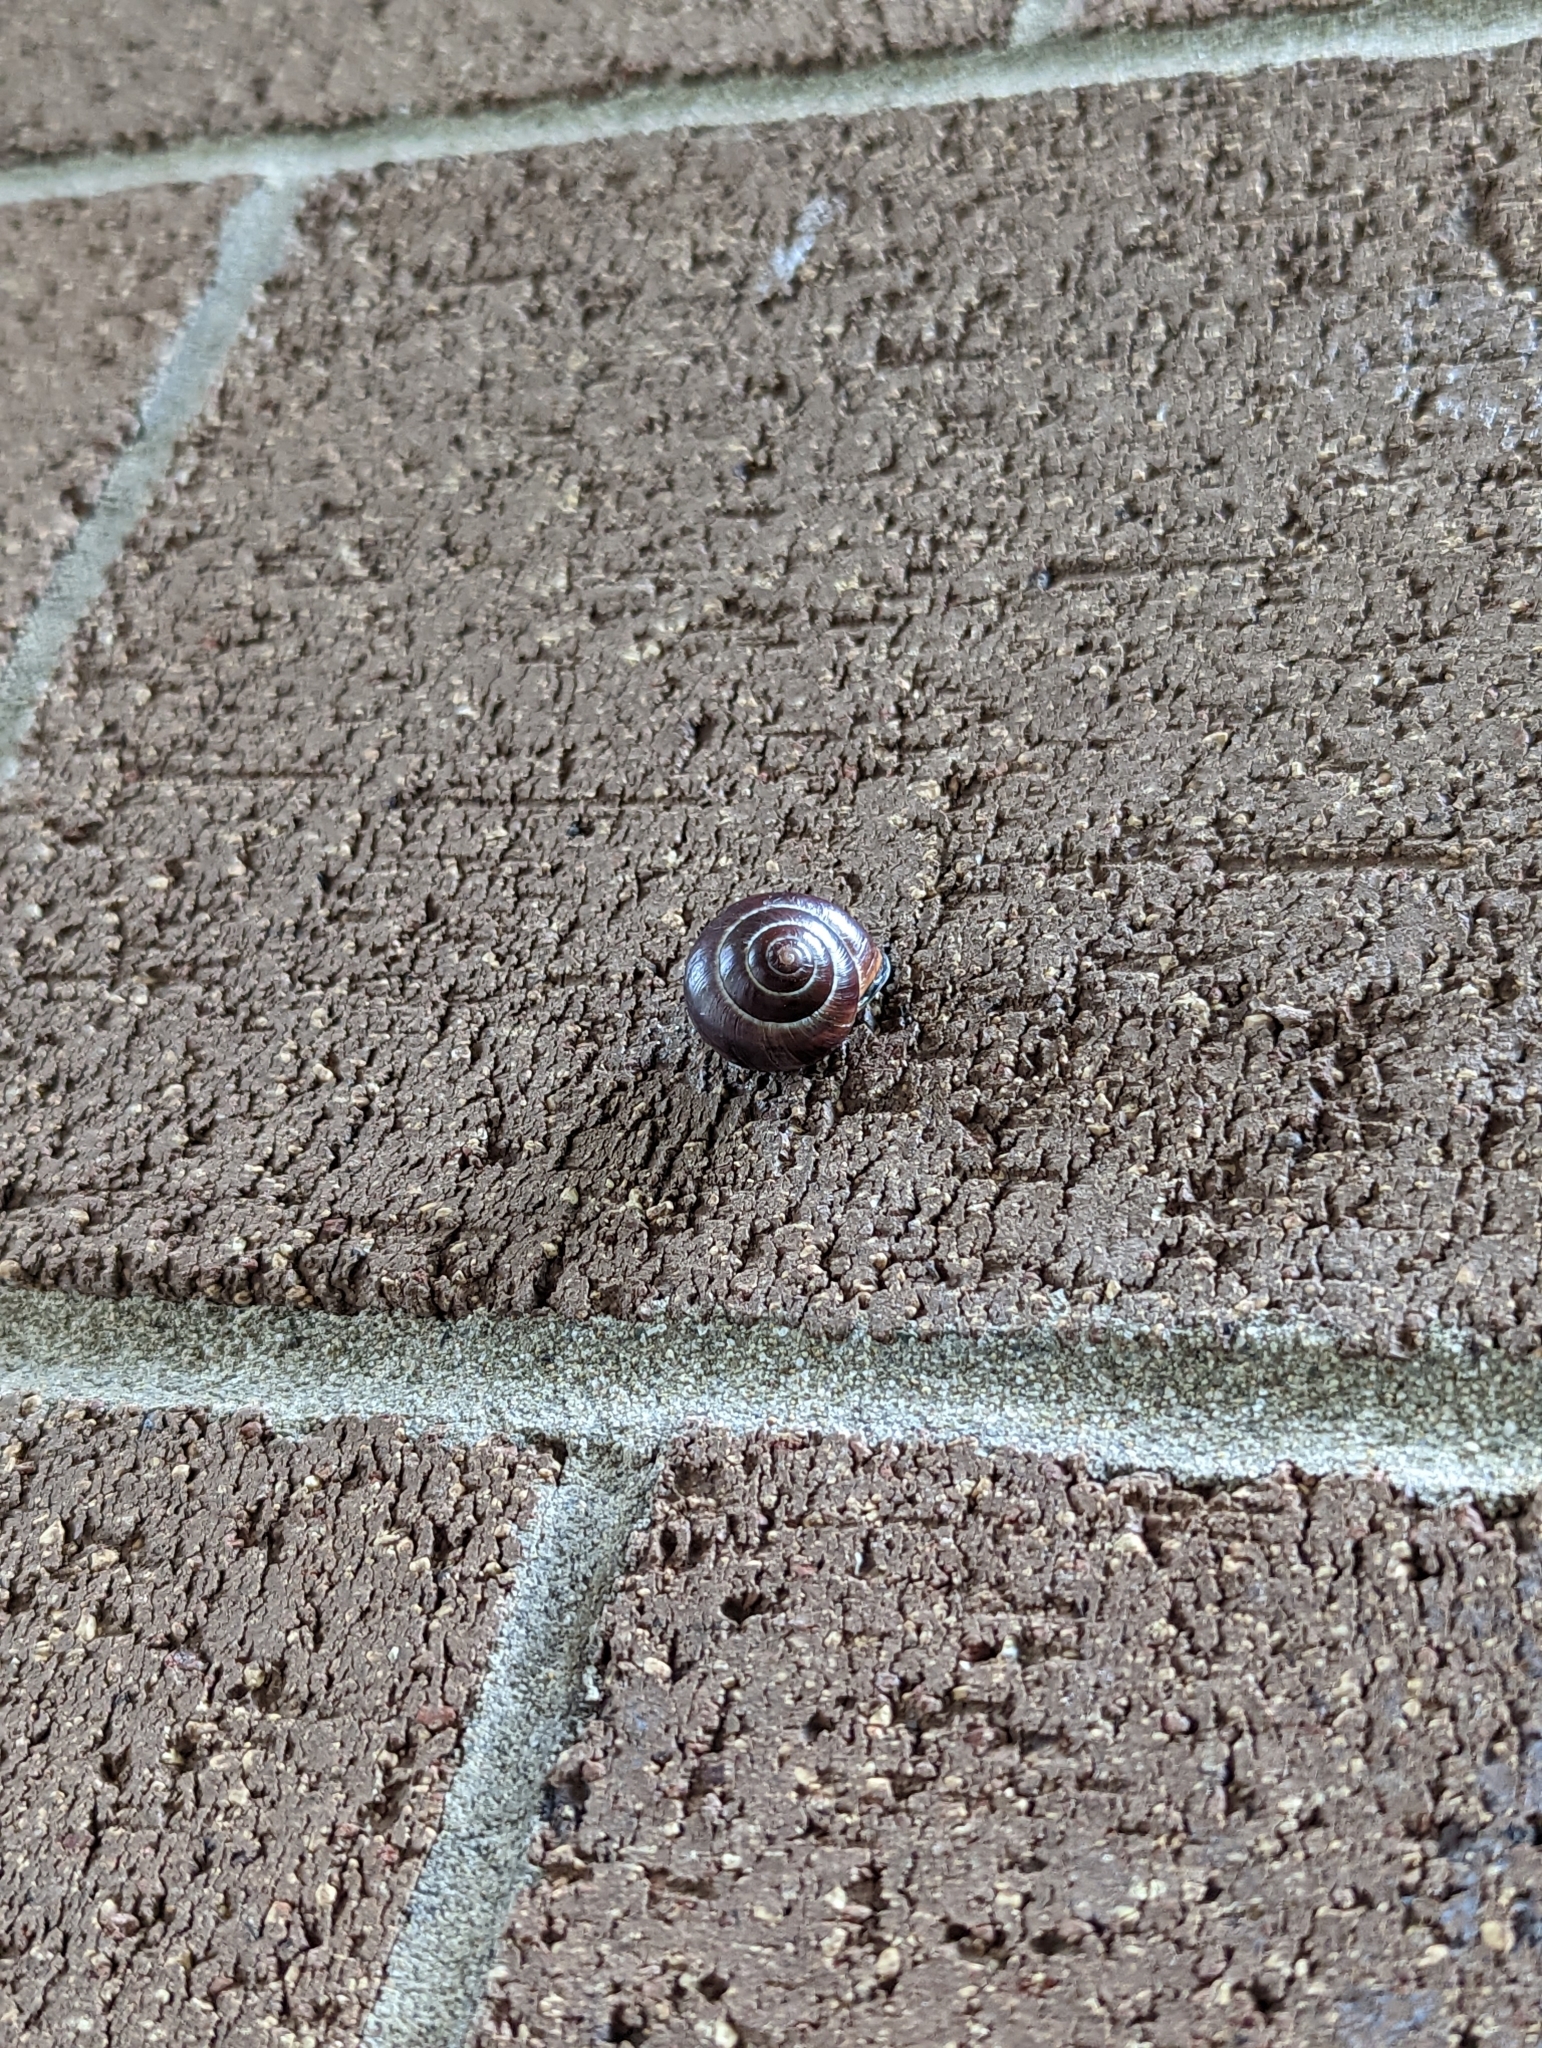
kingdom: Animalia
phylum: Mollusca
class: Gastropoda
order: Stylommatophora
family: Helicidae
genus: Cepaea
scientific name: Cepaea nemoralis
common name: Grovesnail
